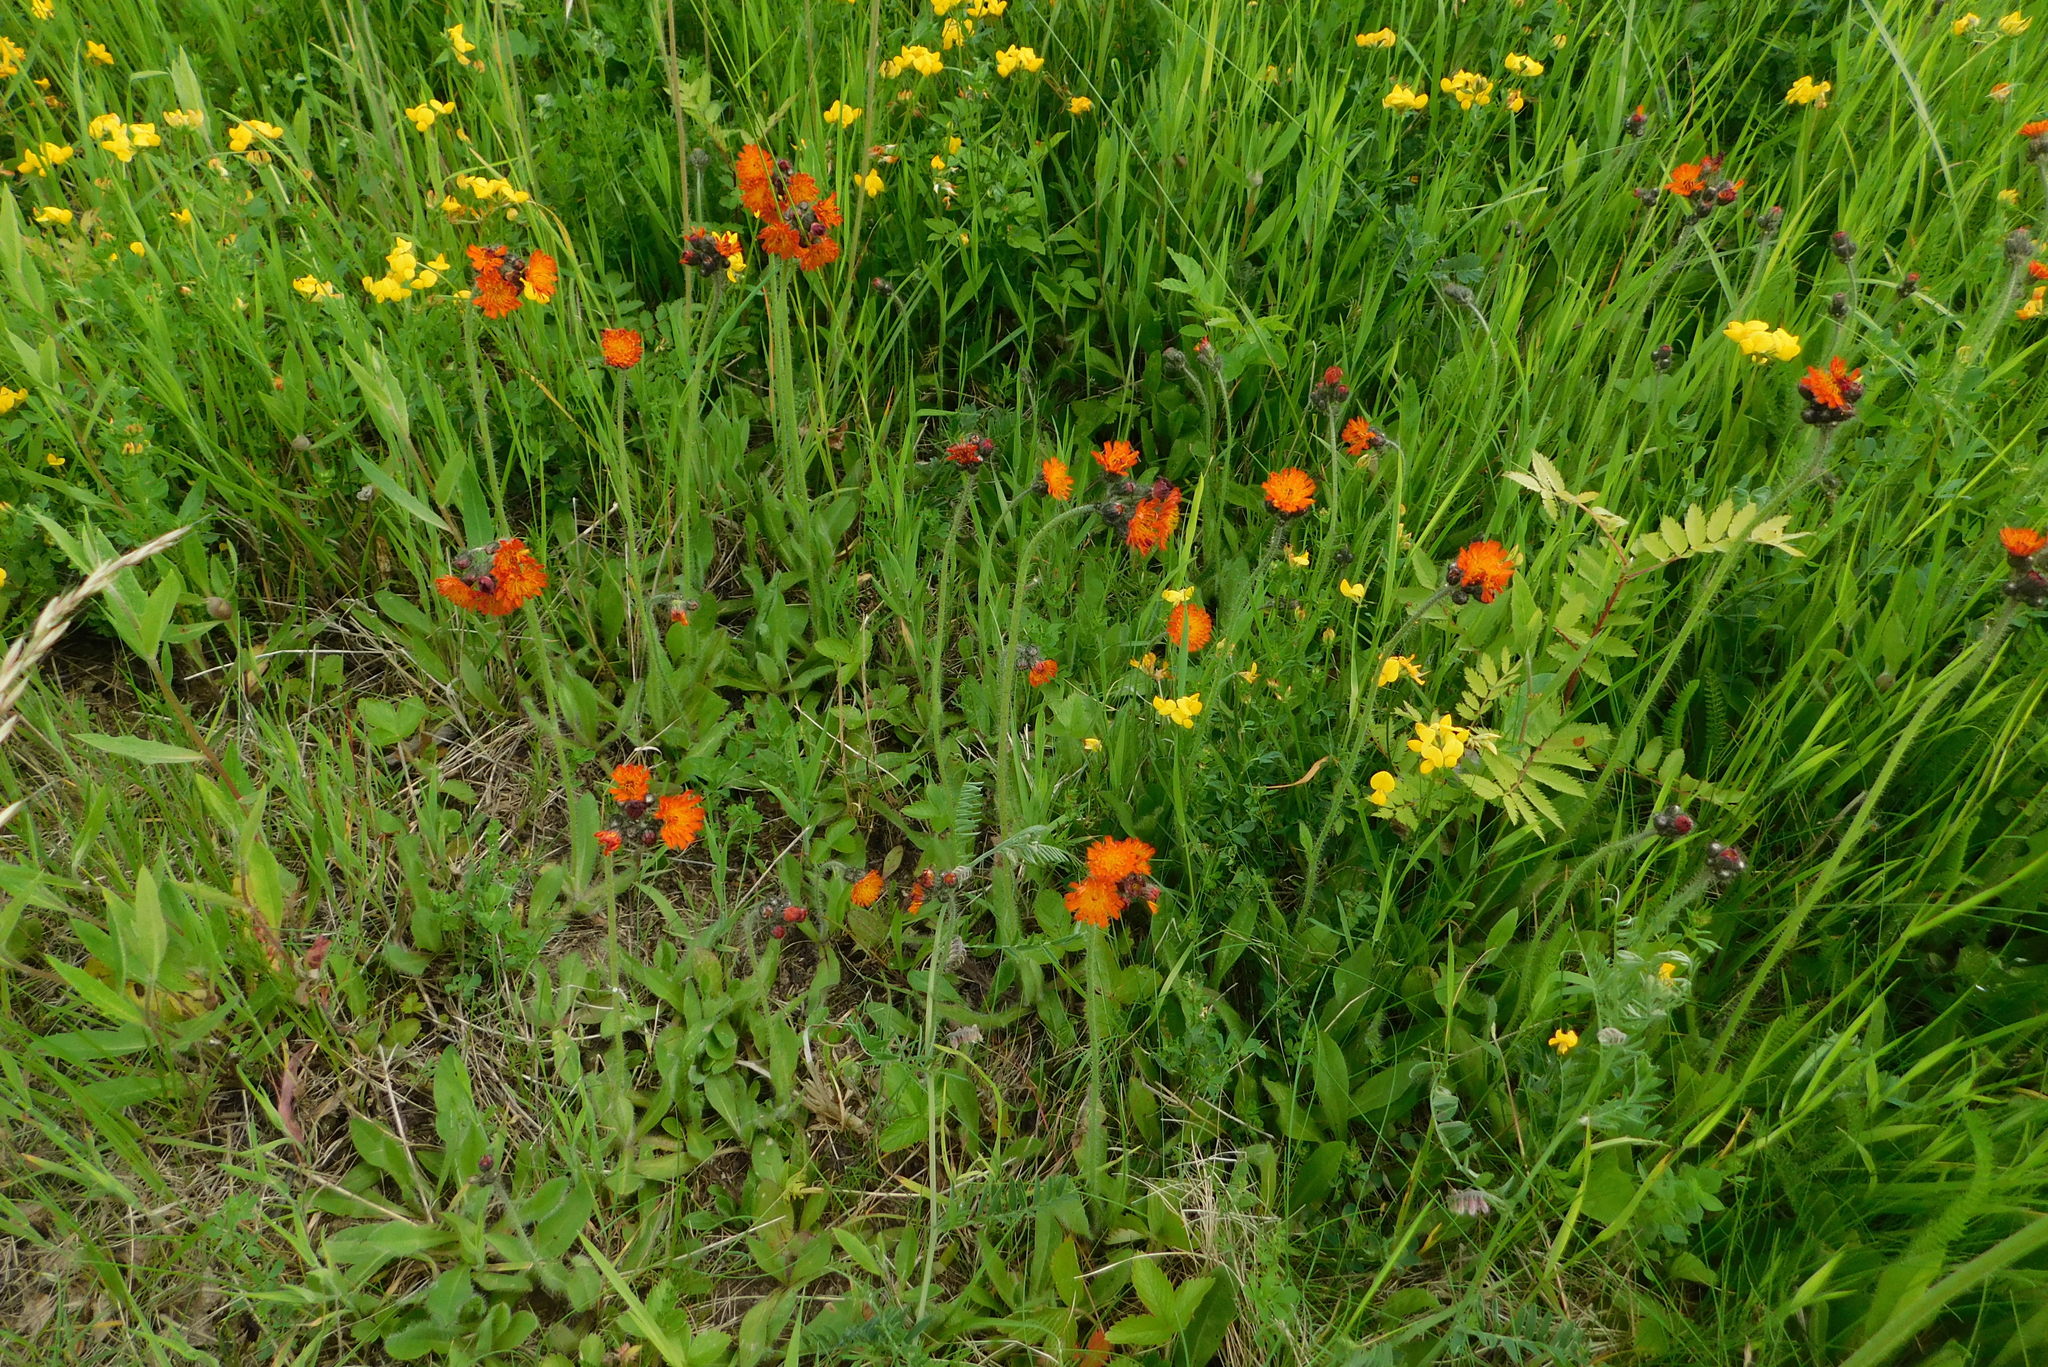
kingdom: Plantae
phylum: Tracheophyta
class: Magnoliopsida
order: Asterales
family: Asteraceae
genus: Pilosella
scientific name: Pilosella aurantiaca
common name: Fox-and-cubs
